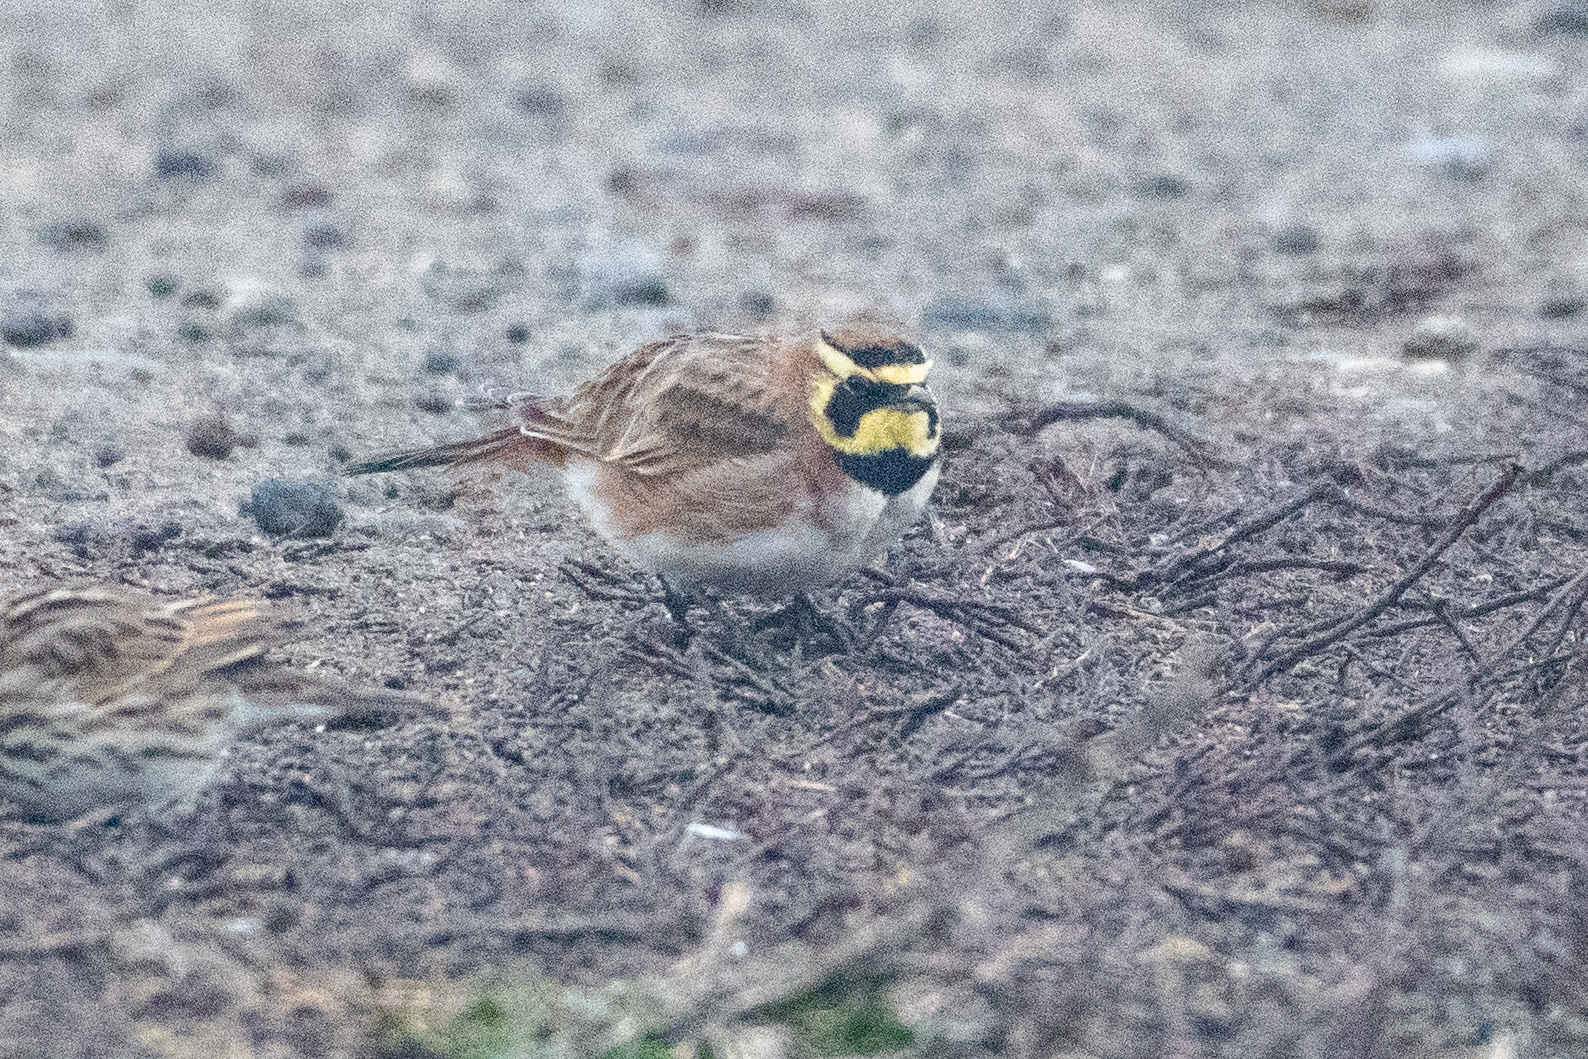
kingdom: Animalia
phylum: Chordata
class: Aves
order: Passeriformes
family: Alaudidae
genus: Eremophila
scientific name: Eremophila alpestris
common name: Horned lark
